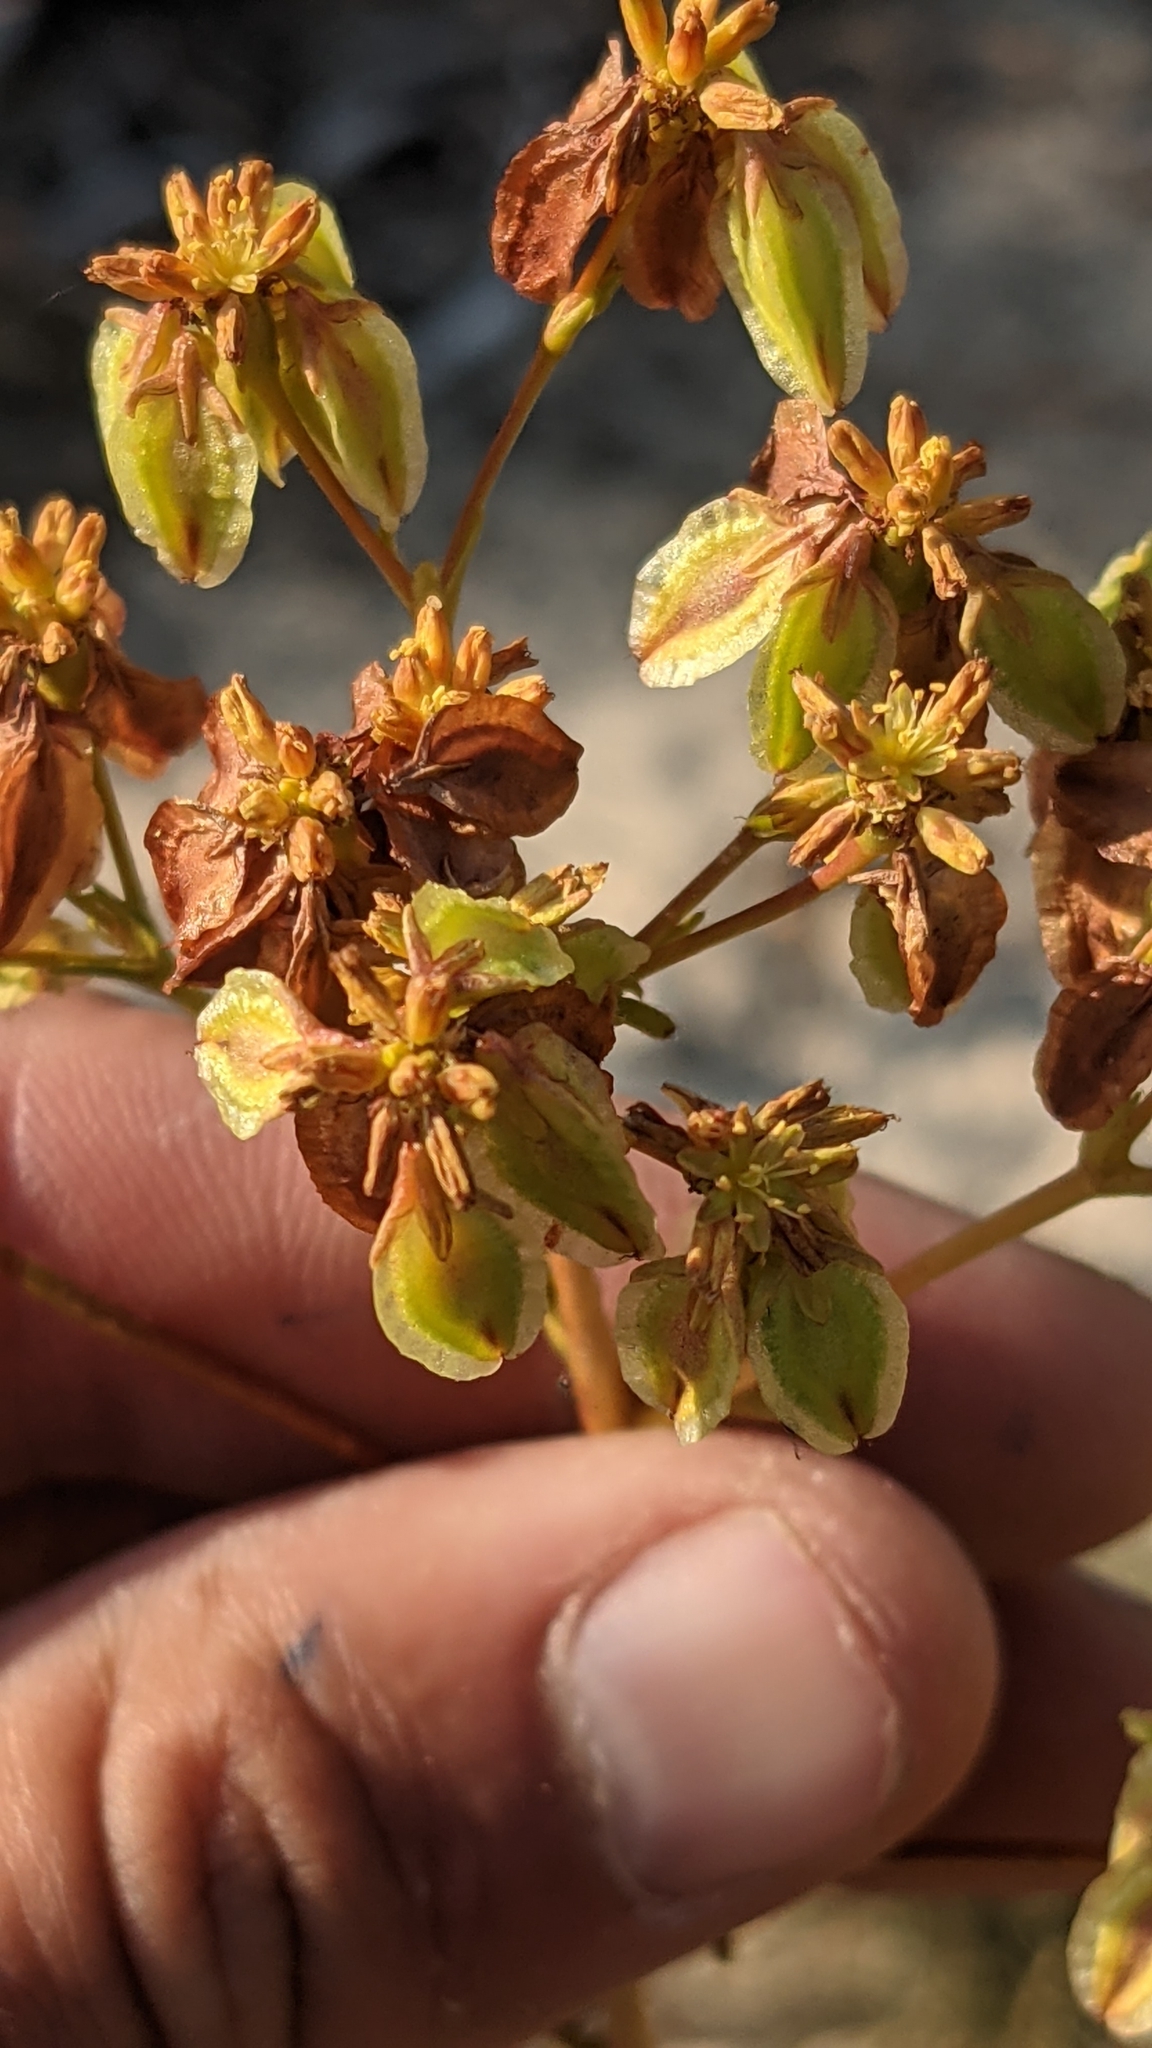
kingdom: Plantae
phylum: Tracheophyta
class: Magnoliopsida
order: Caryophyllales
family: Polygonaceae
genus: Eriogonum
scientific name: Eriogonum alatum
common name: Winged eriogonum
